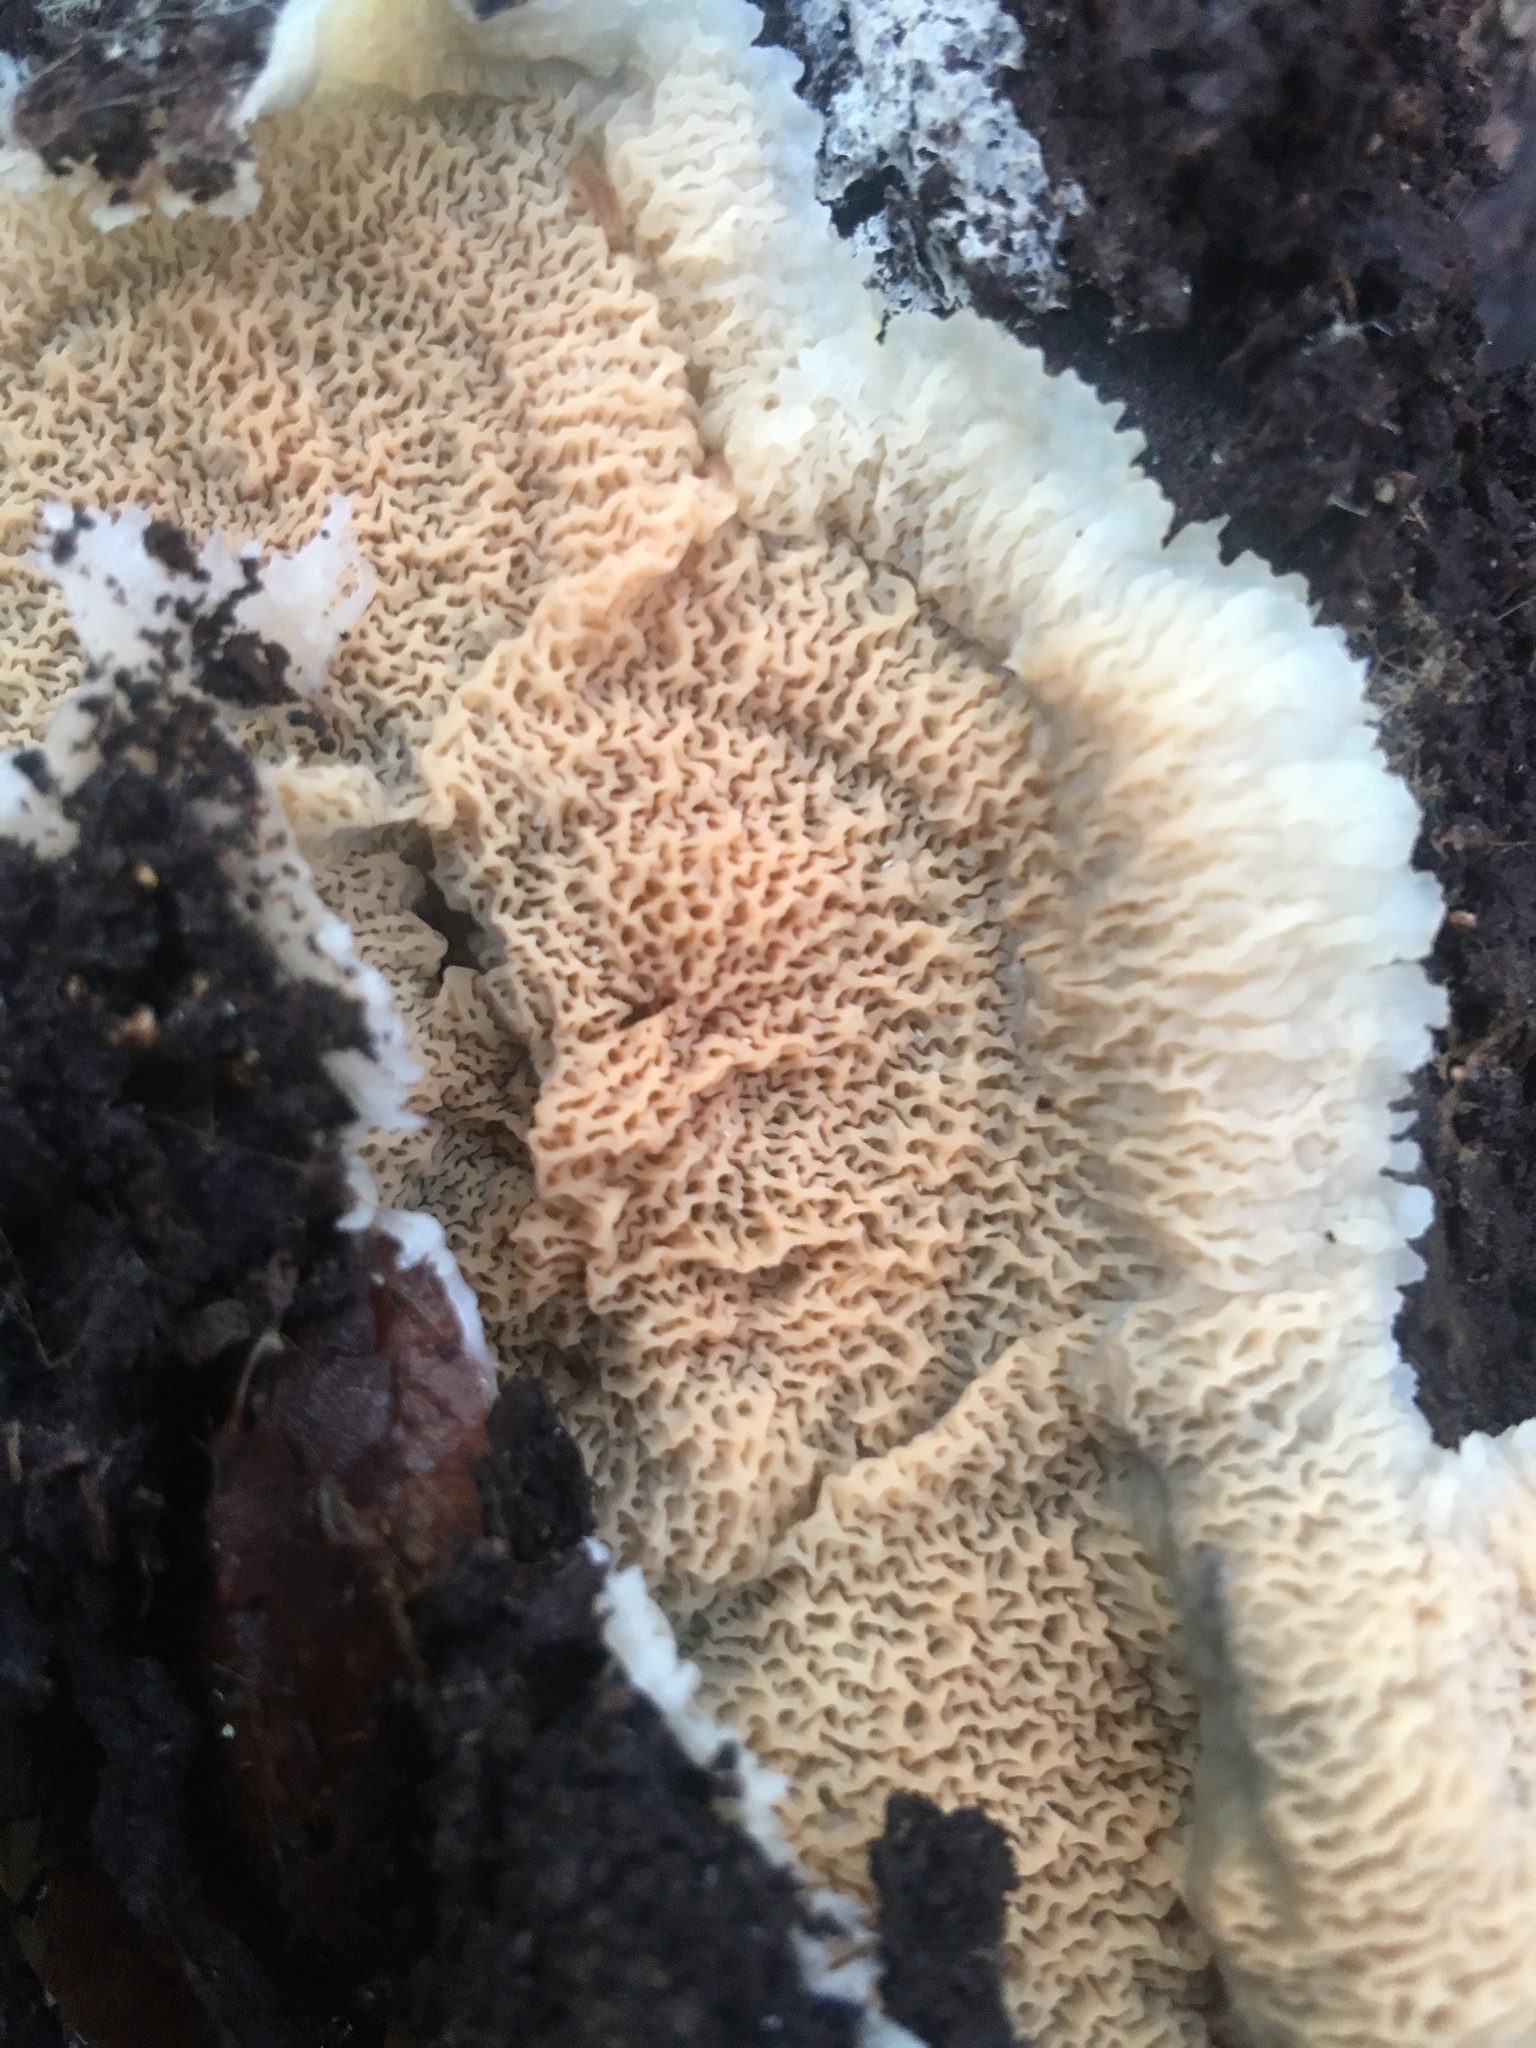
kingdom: Fungi
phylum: Basidiomycota
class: Agaricomycetes
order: Polyporales
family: Meruliaceae
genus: Phlebia
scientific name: Phlebia tremellosa
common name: Jelly rot
